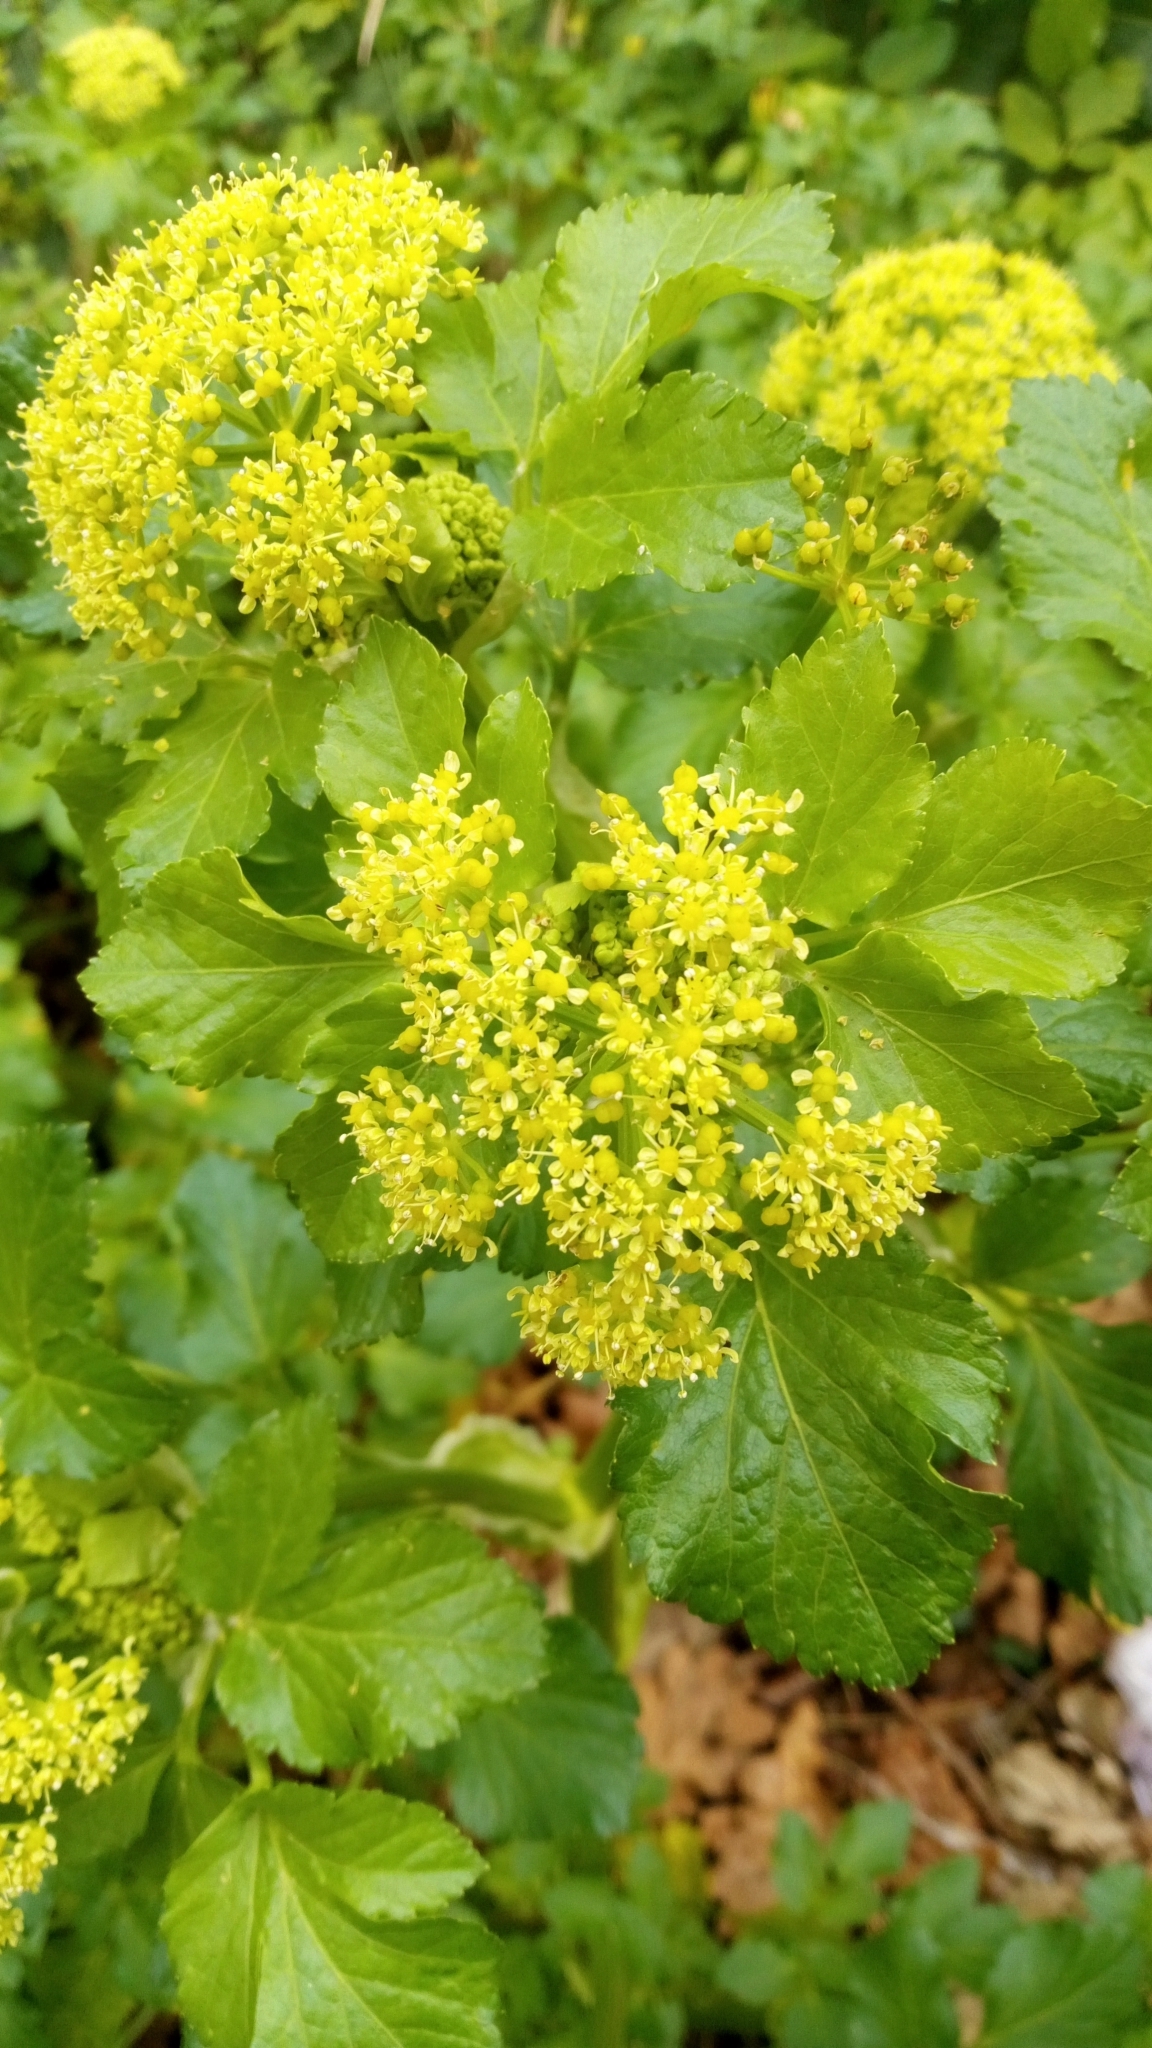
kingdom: Plantae
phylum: Tracheophyta
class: Magnoliopsida
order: Apiales
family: Apiaceae
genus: Smyrnium
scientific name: Smyrnium olusatrum
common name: Alexanders
